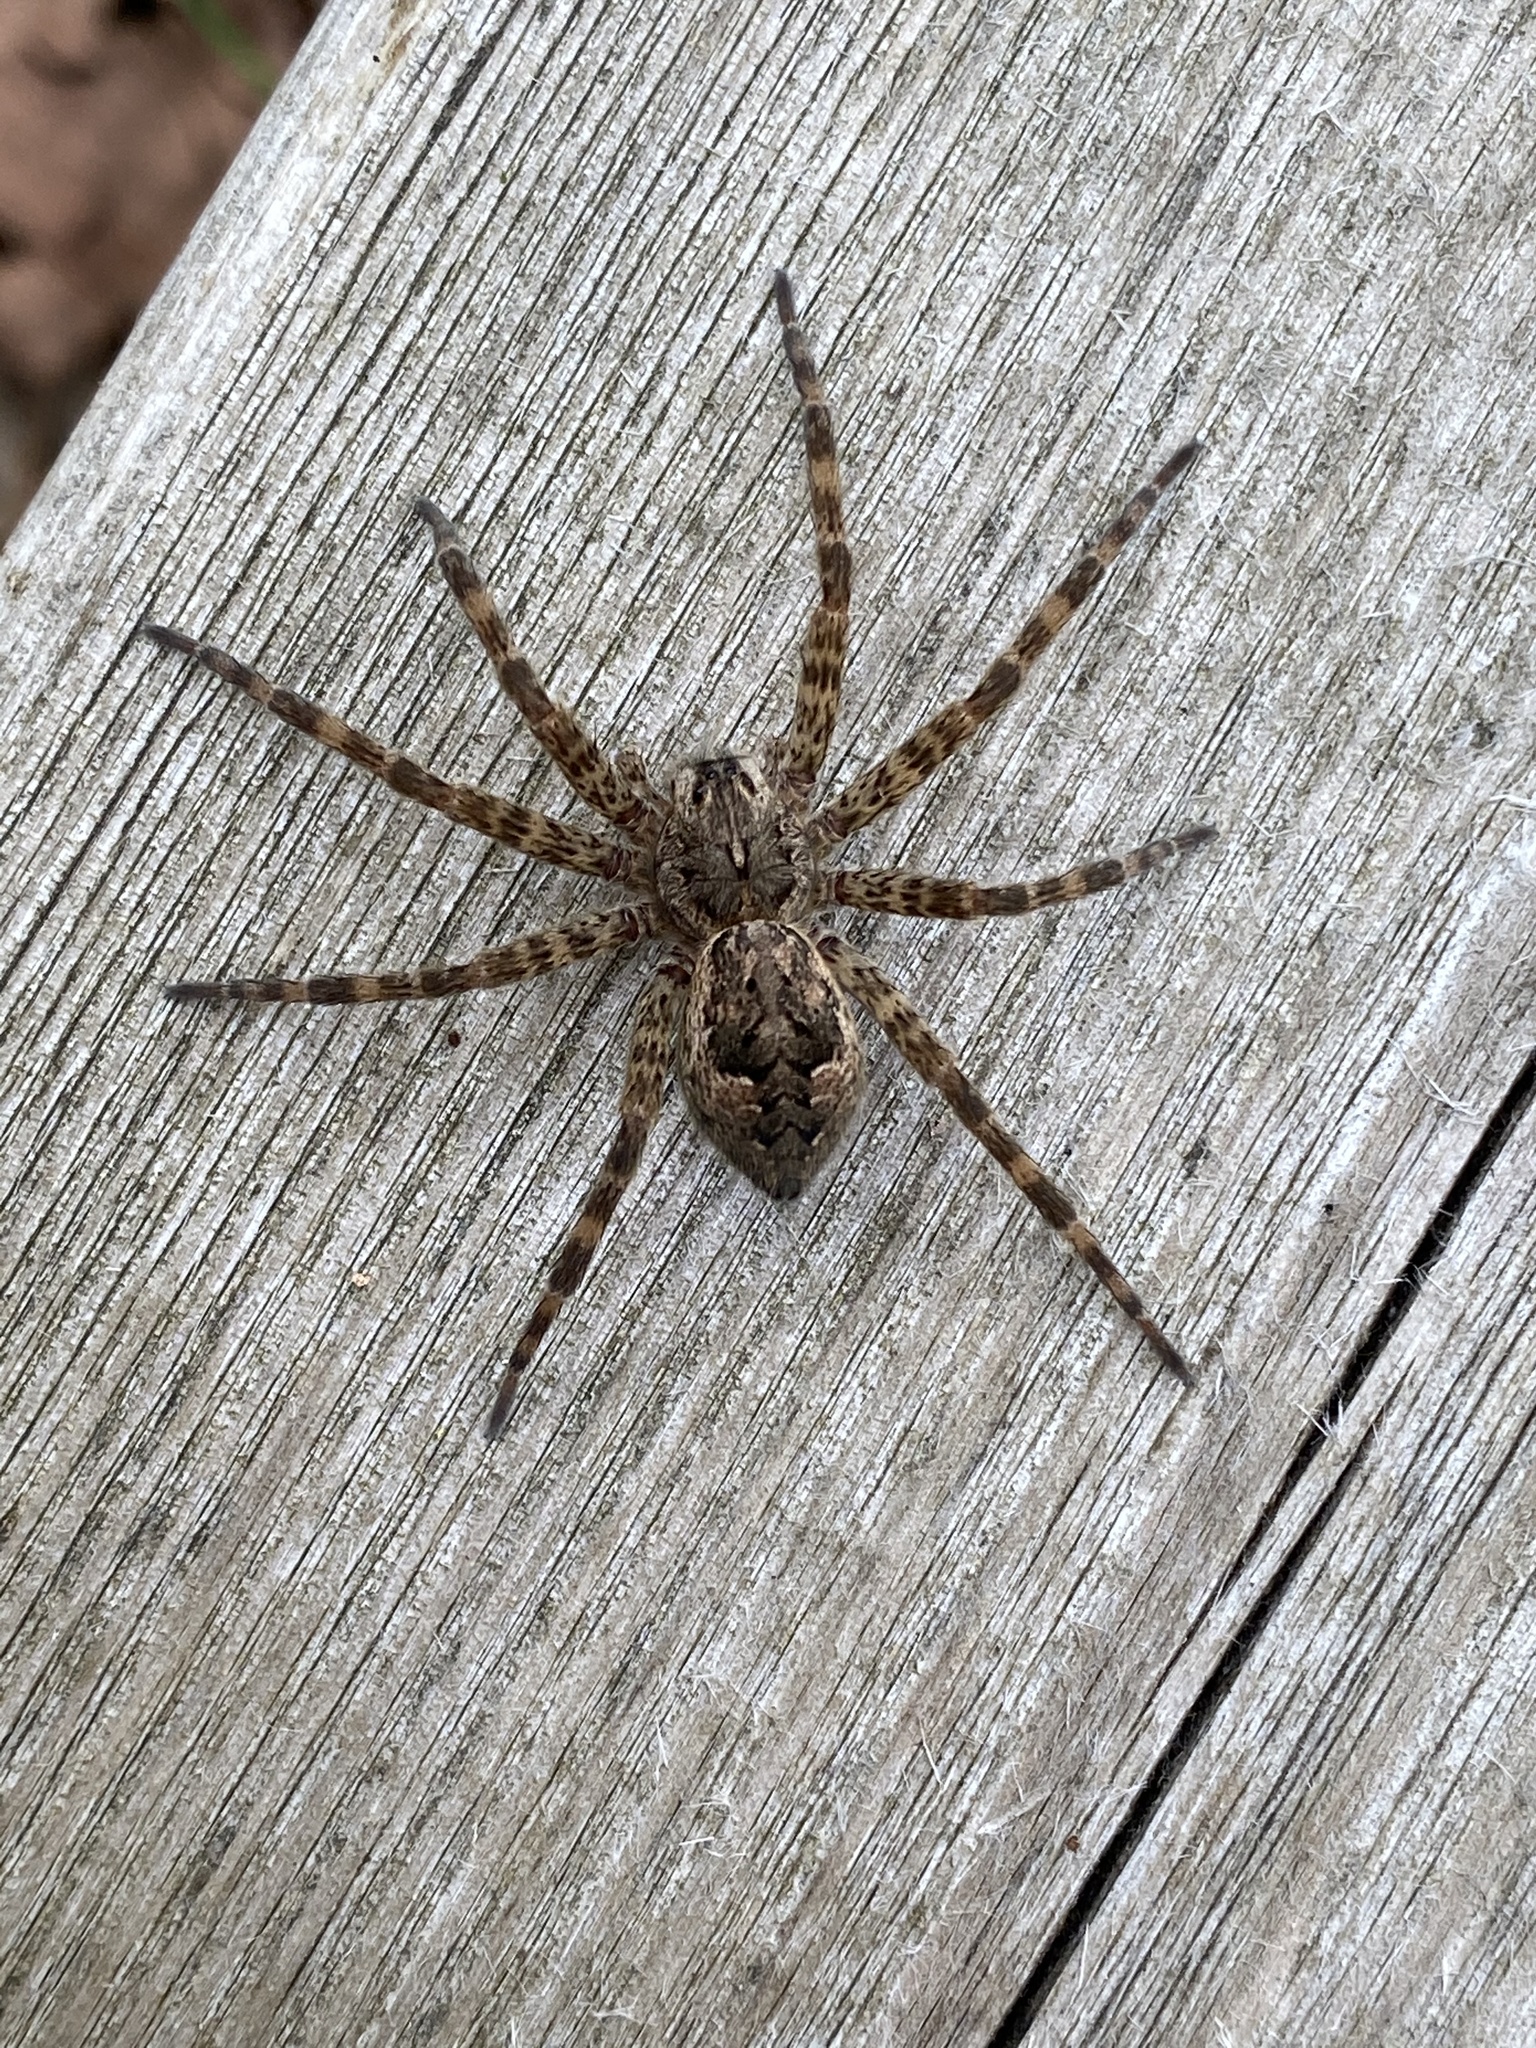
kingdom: Animalia
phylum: Arthropoda
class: Arachnida
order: Araneae
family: Pisauridae
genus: Dolomedes
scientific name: Dolomedes tenebrosus
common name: Dark fishing spider
